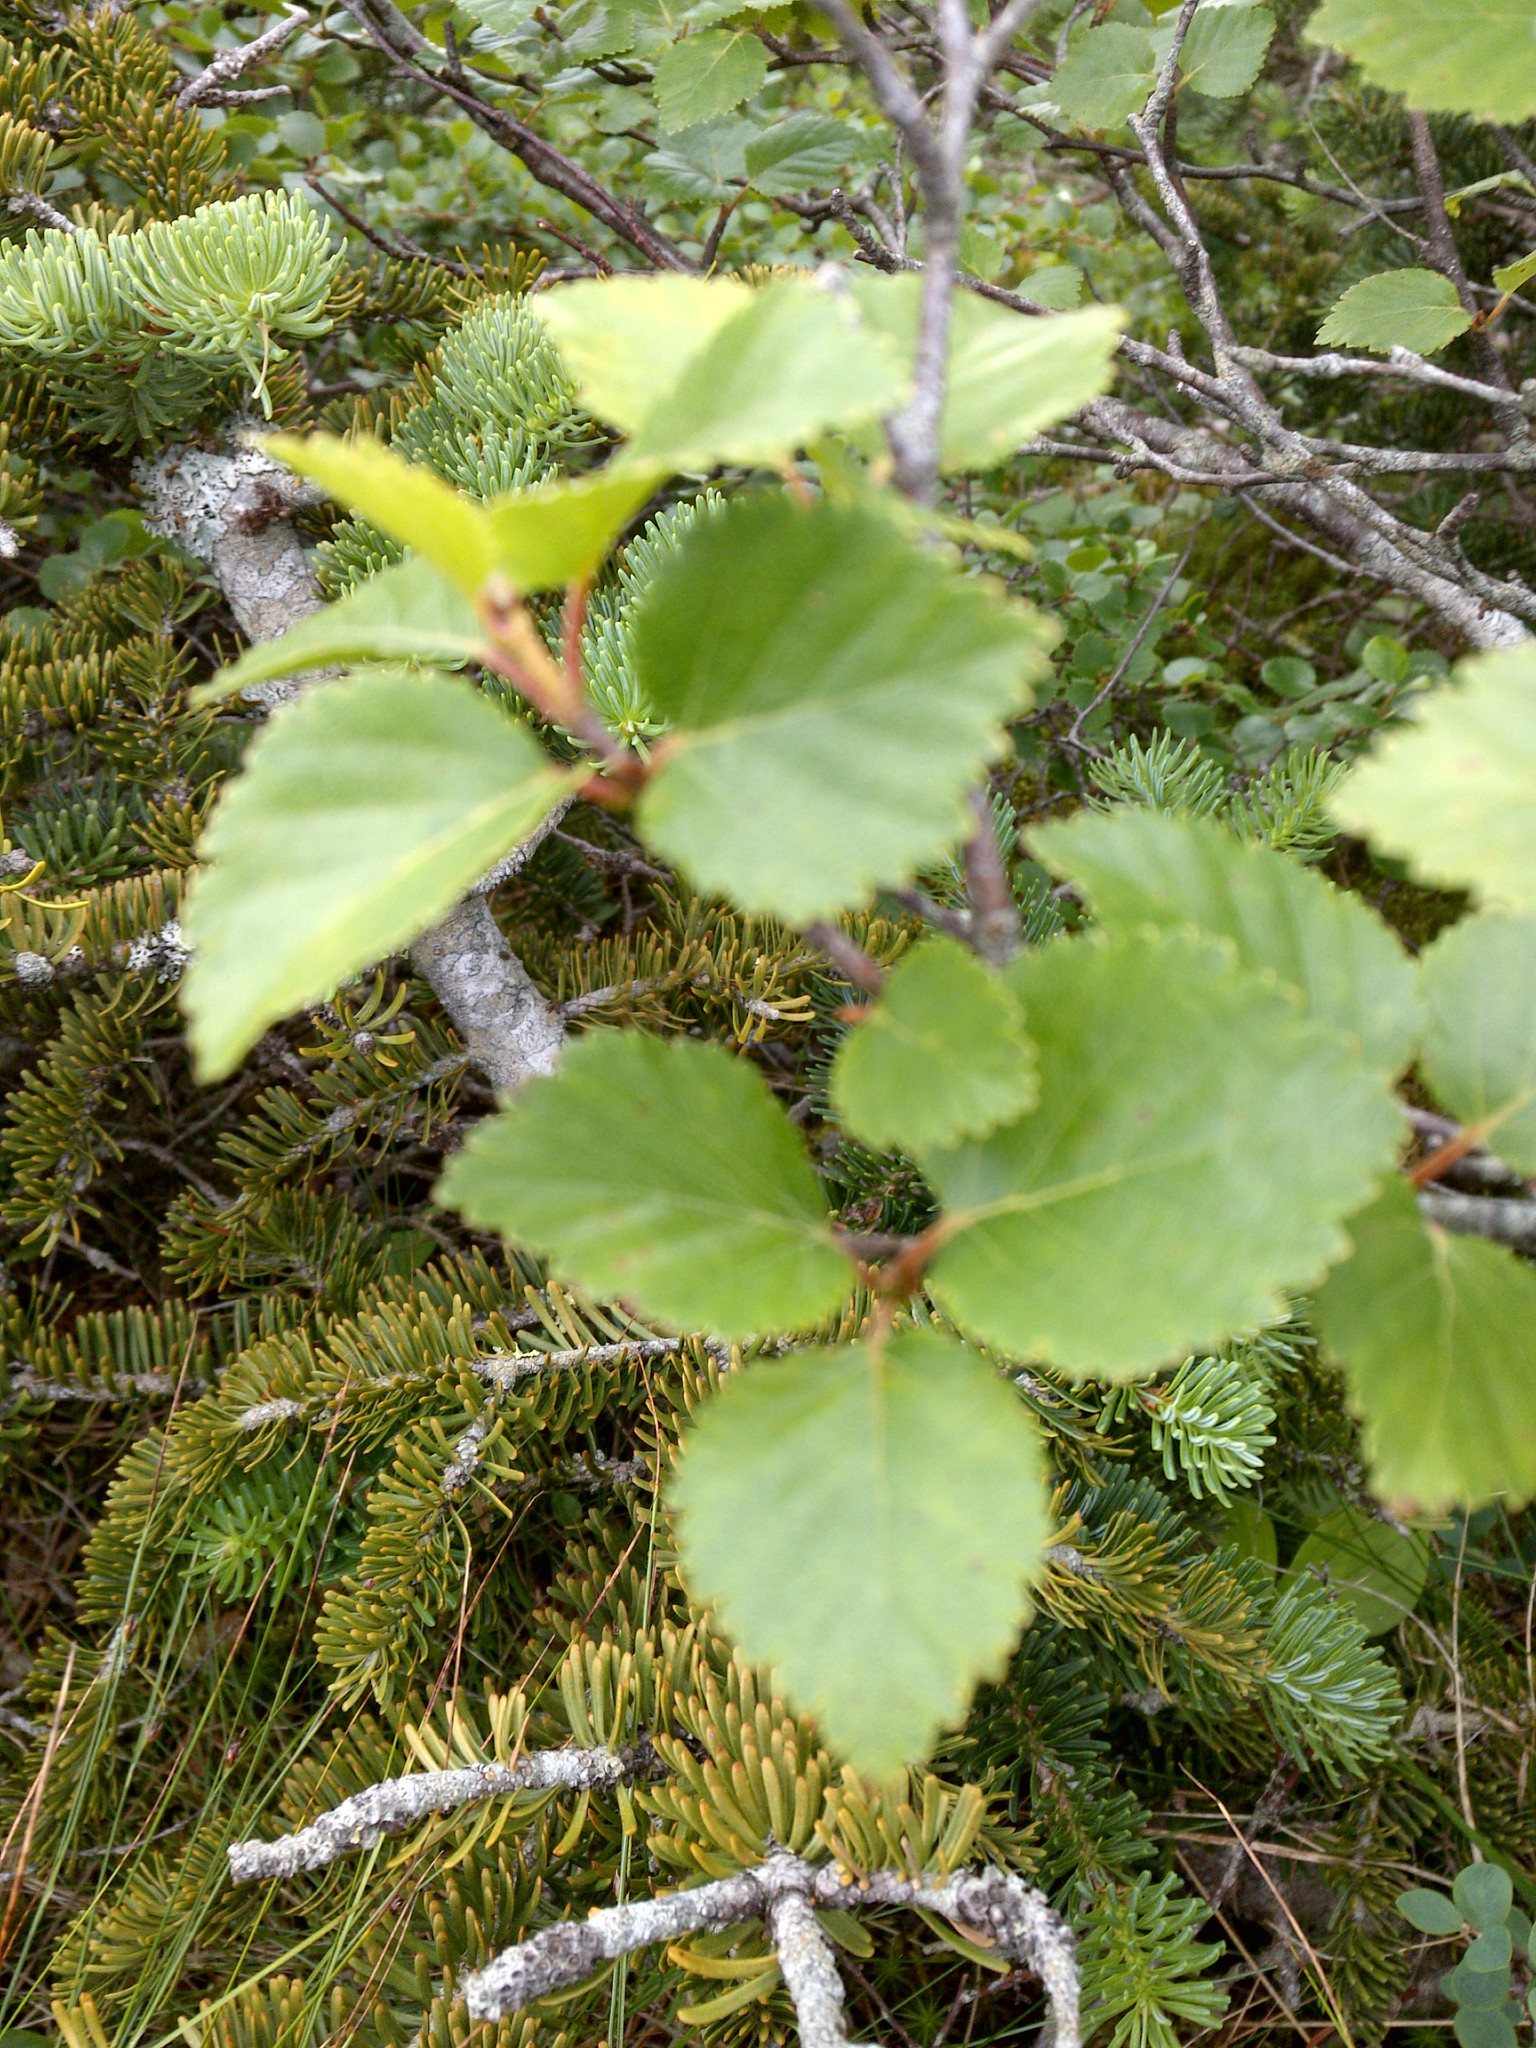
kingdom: Plantae
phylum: Tracheophyta
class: Magnoliopsida
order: Fagales
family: Betulaceae
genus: Betula
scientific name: Betula minor
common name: Dwarf birch
